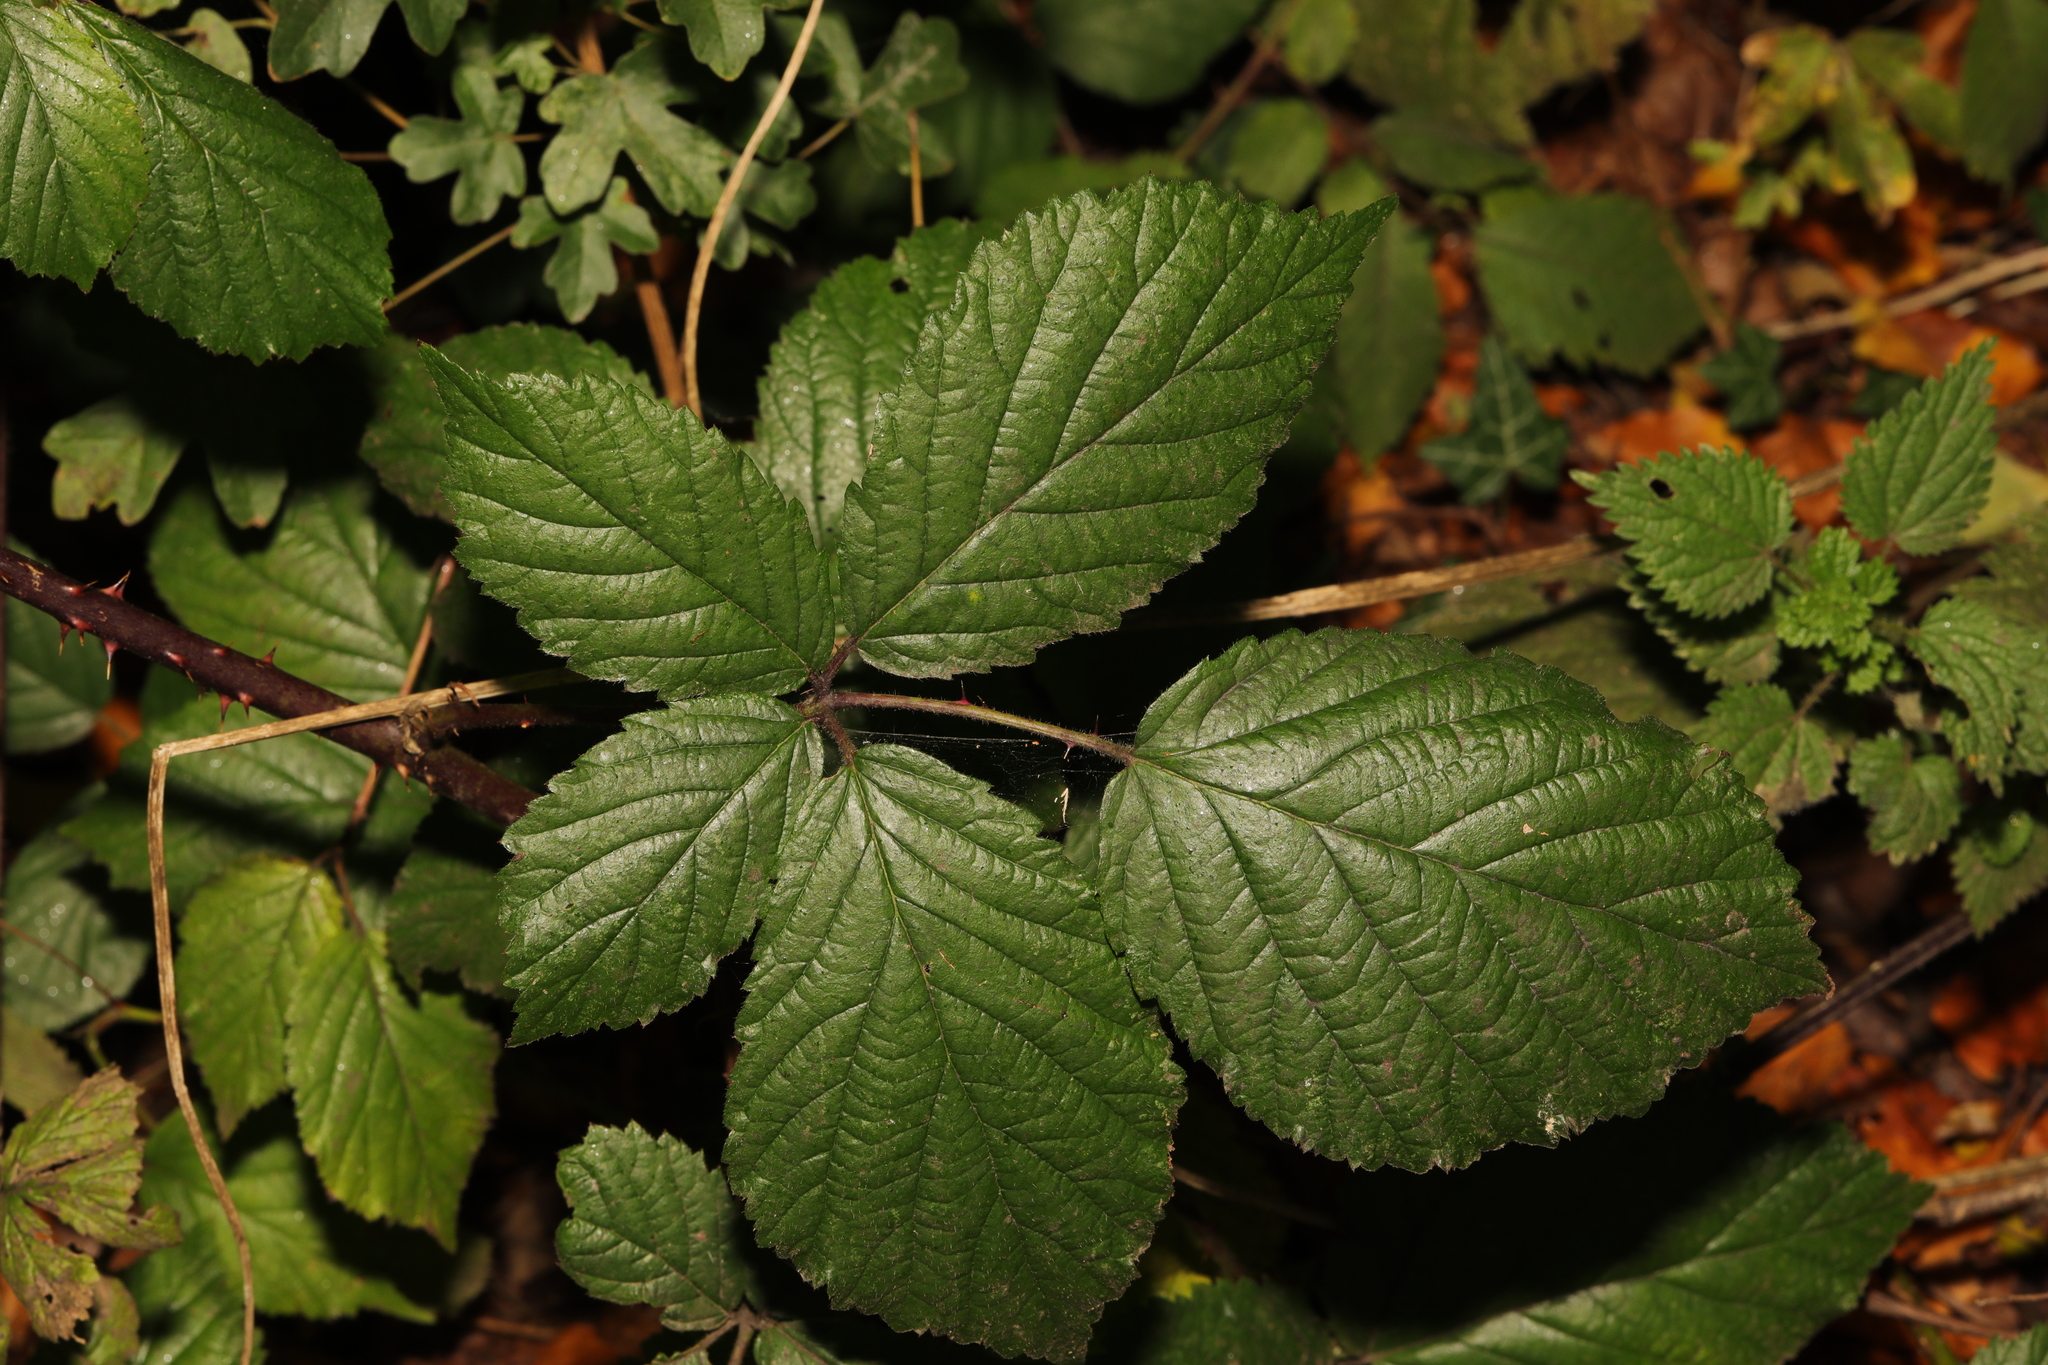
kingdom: Plantae
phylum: Tracheophyta
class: Magnoliopsida
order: Rosales
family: Rosaceae
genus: Rubus
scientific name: Rubus cissburiensis
